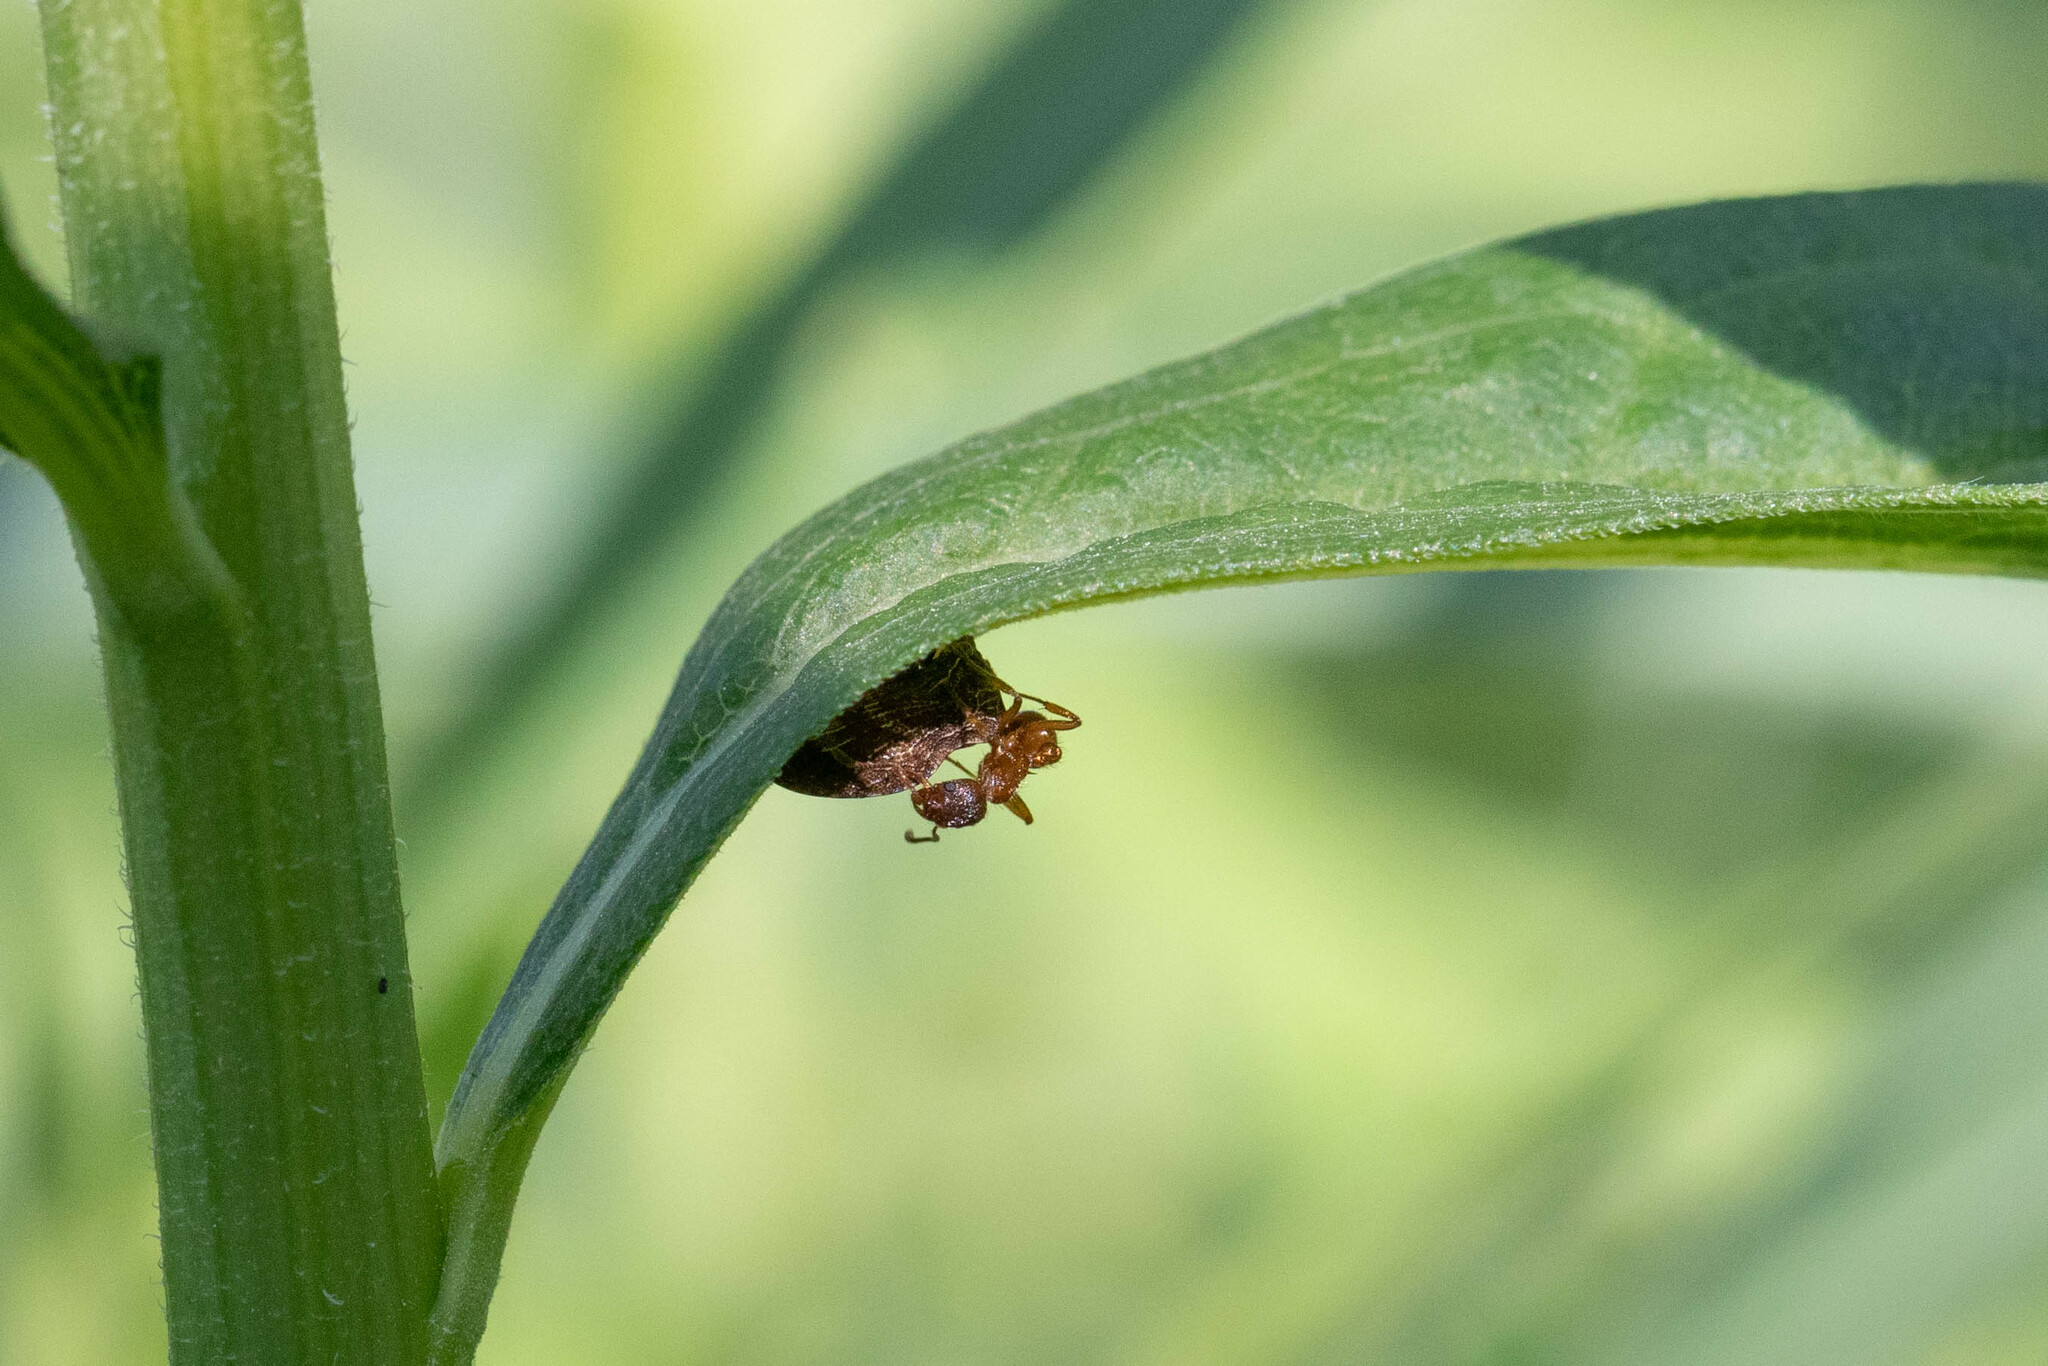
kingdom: Animalia
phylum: Arthropoda
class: Insecta
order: Hemiptera
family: Membracidae
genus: Publilia
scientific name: Publilia concava
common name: Aster treehopper
